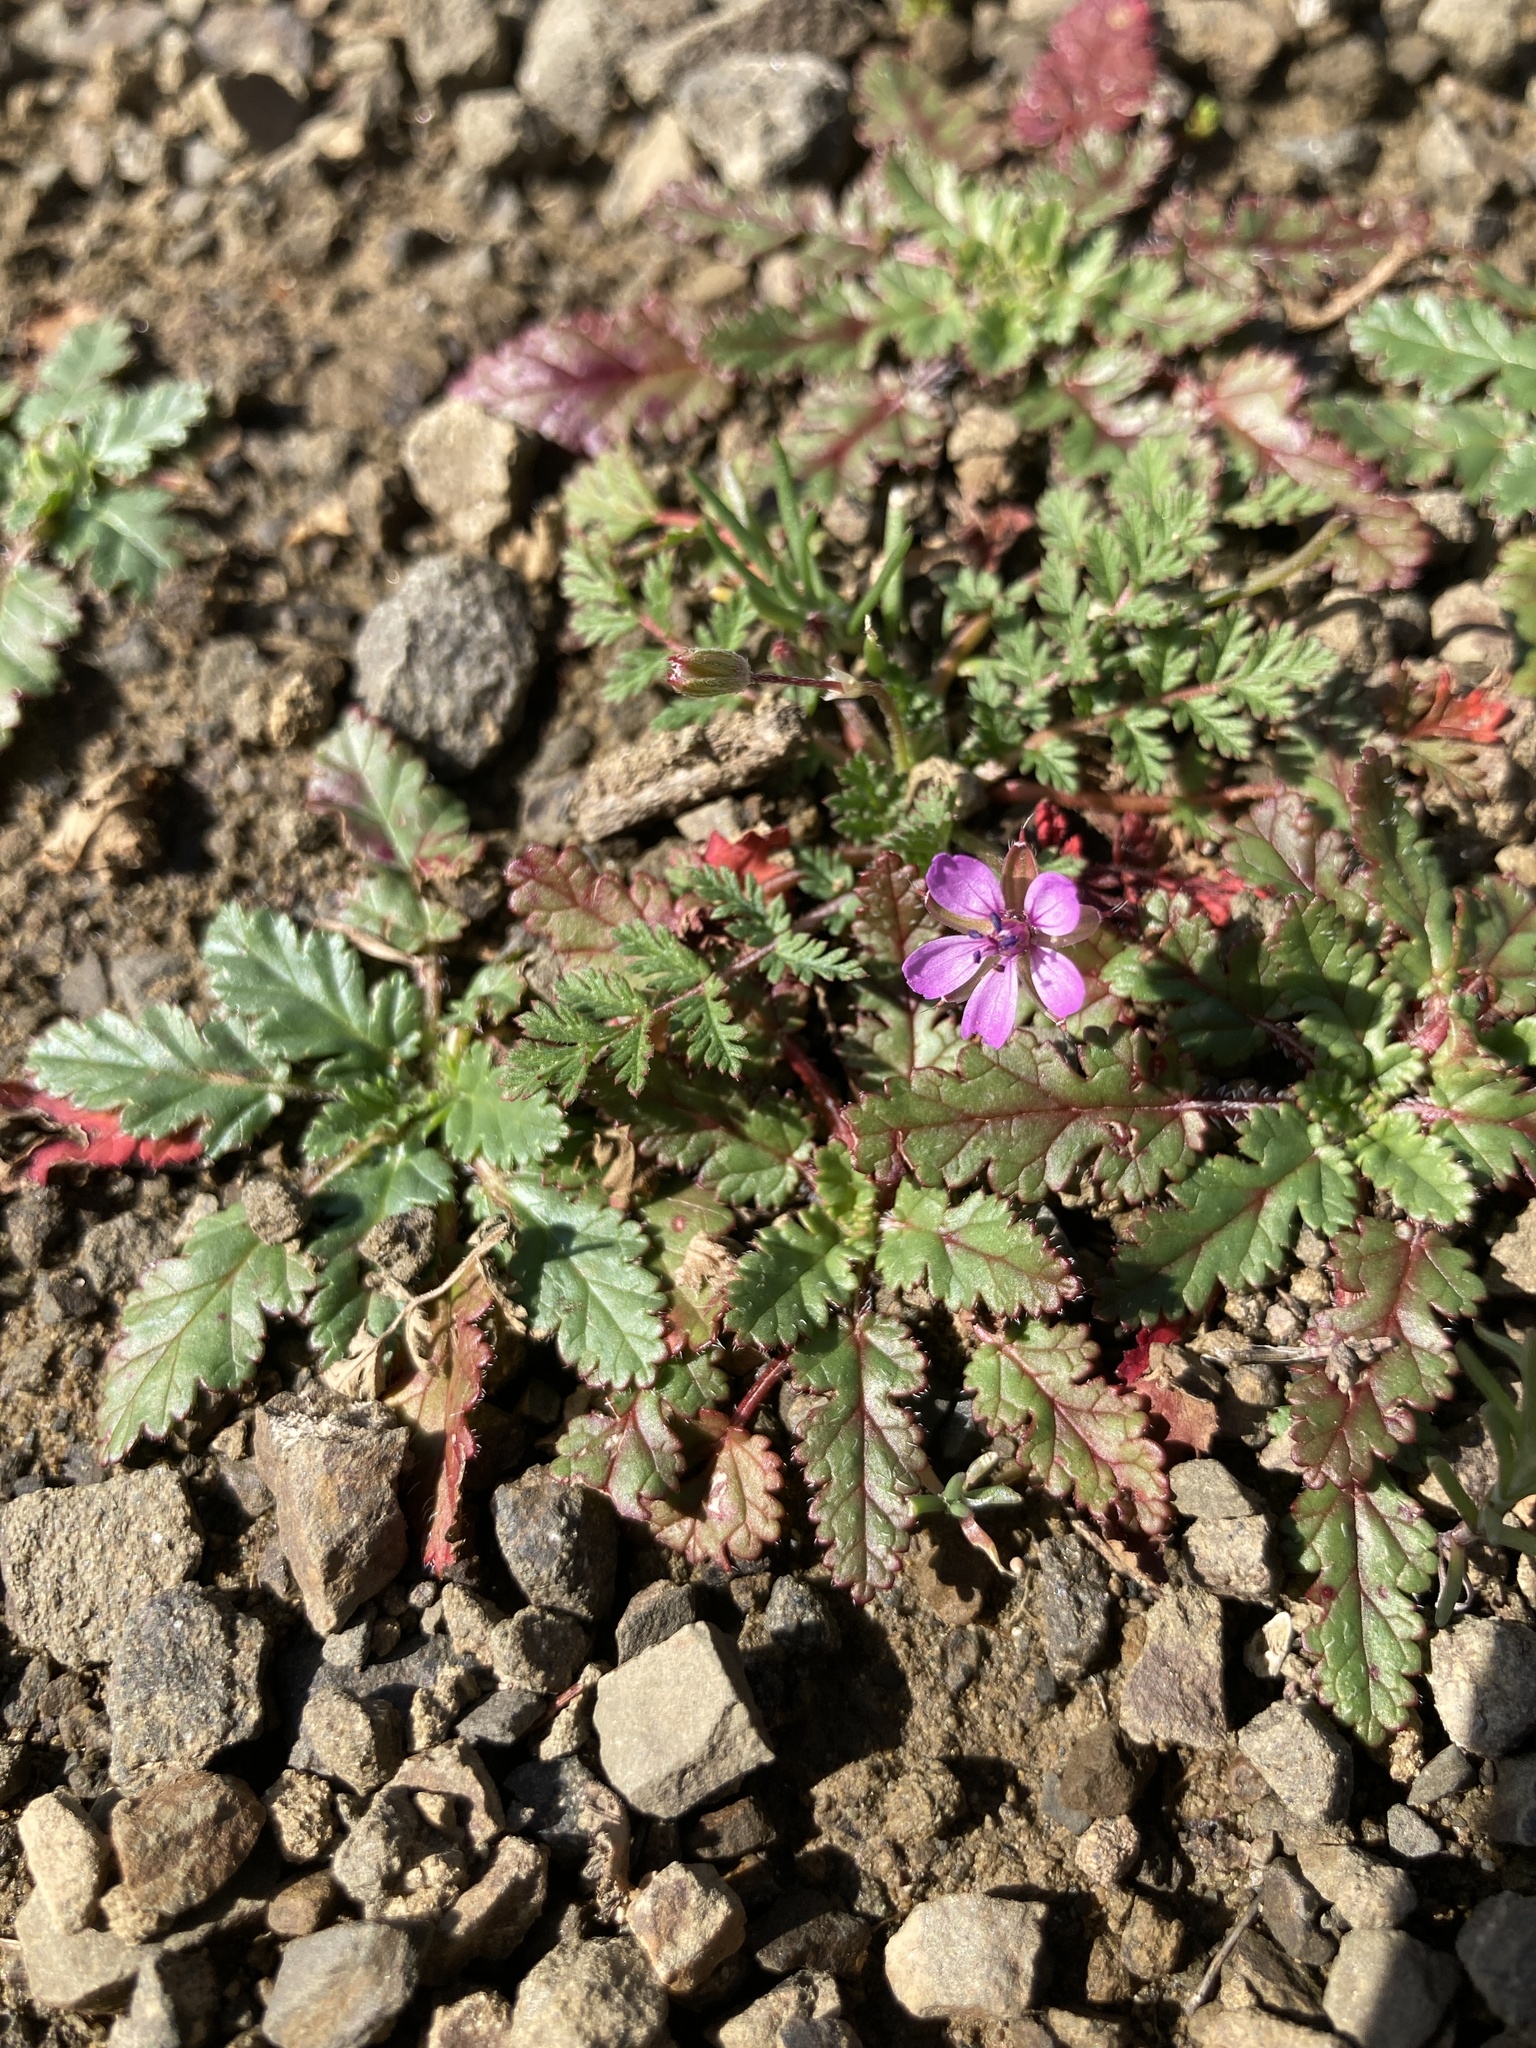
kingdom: Plantae
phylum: Tracheophyta
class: Magnoliopsida
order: Geraniales
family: Geraniaceae
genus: Erodium
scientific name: Erodium cicutarium
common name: Common stork's-bill
